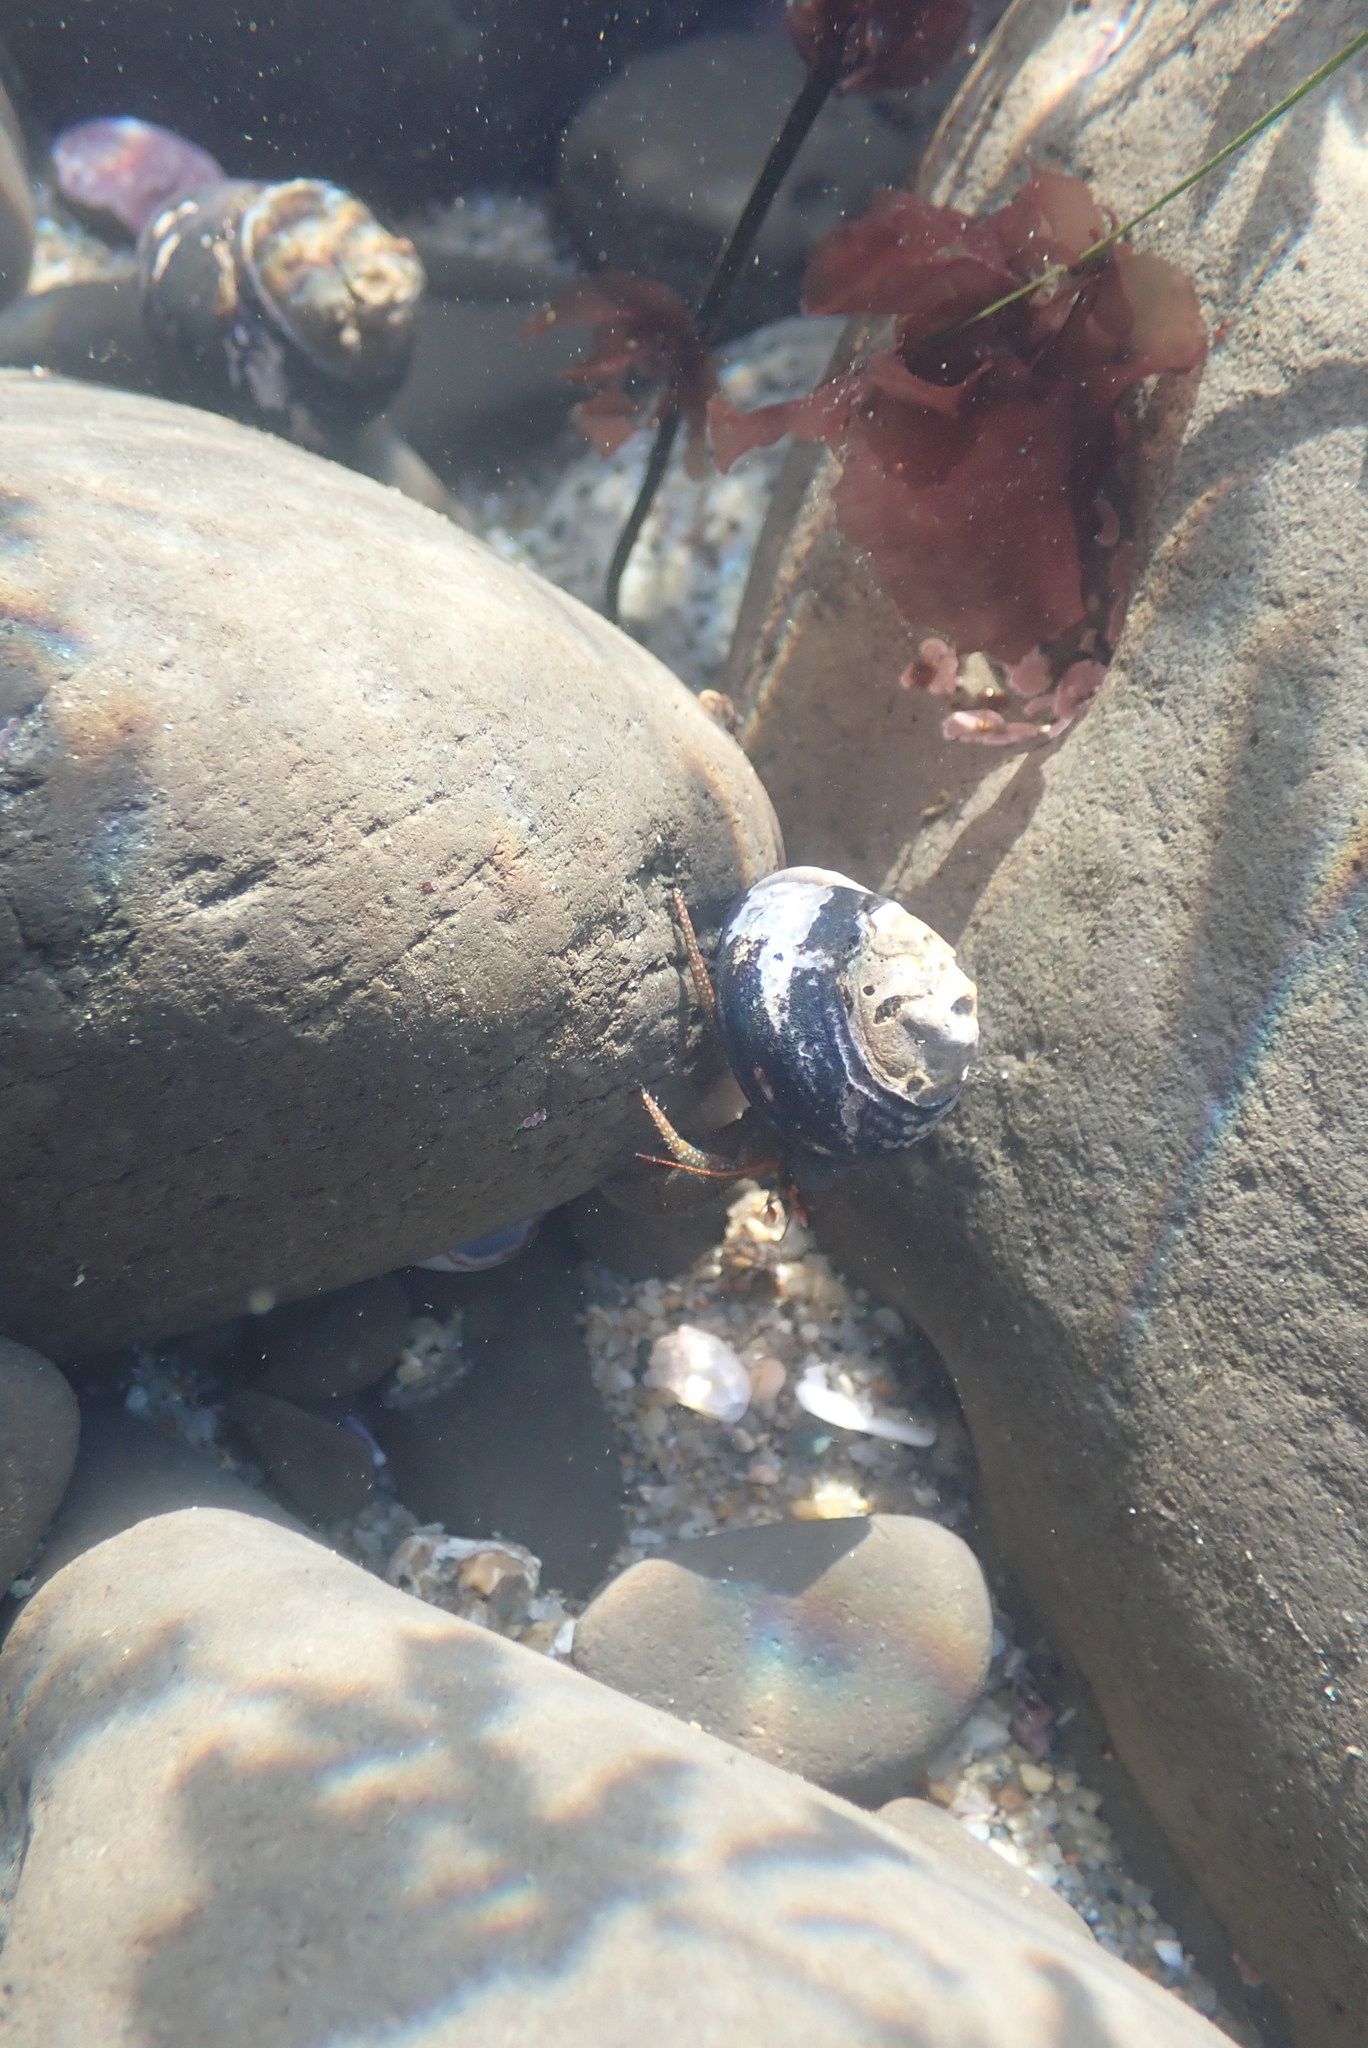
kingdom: Animalia
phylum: Arthropoda
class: Malacostraca
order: Decapoda
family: Paguridae
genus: Pagurus
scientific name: Pagurus granosimanus
